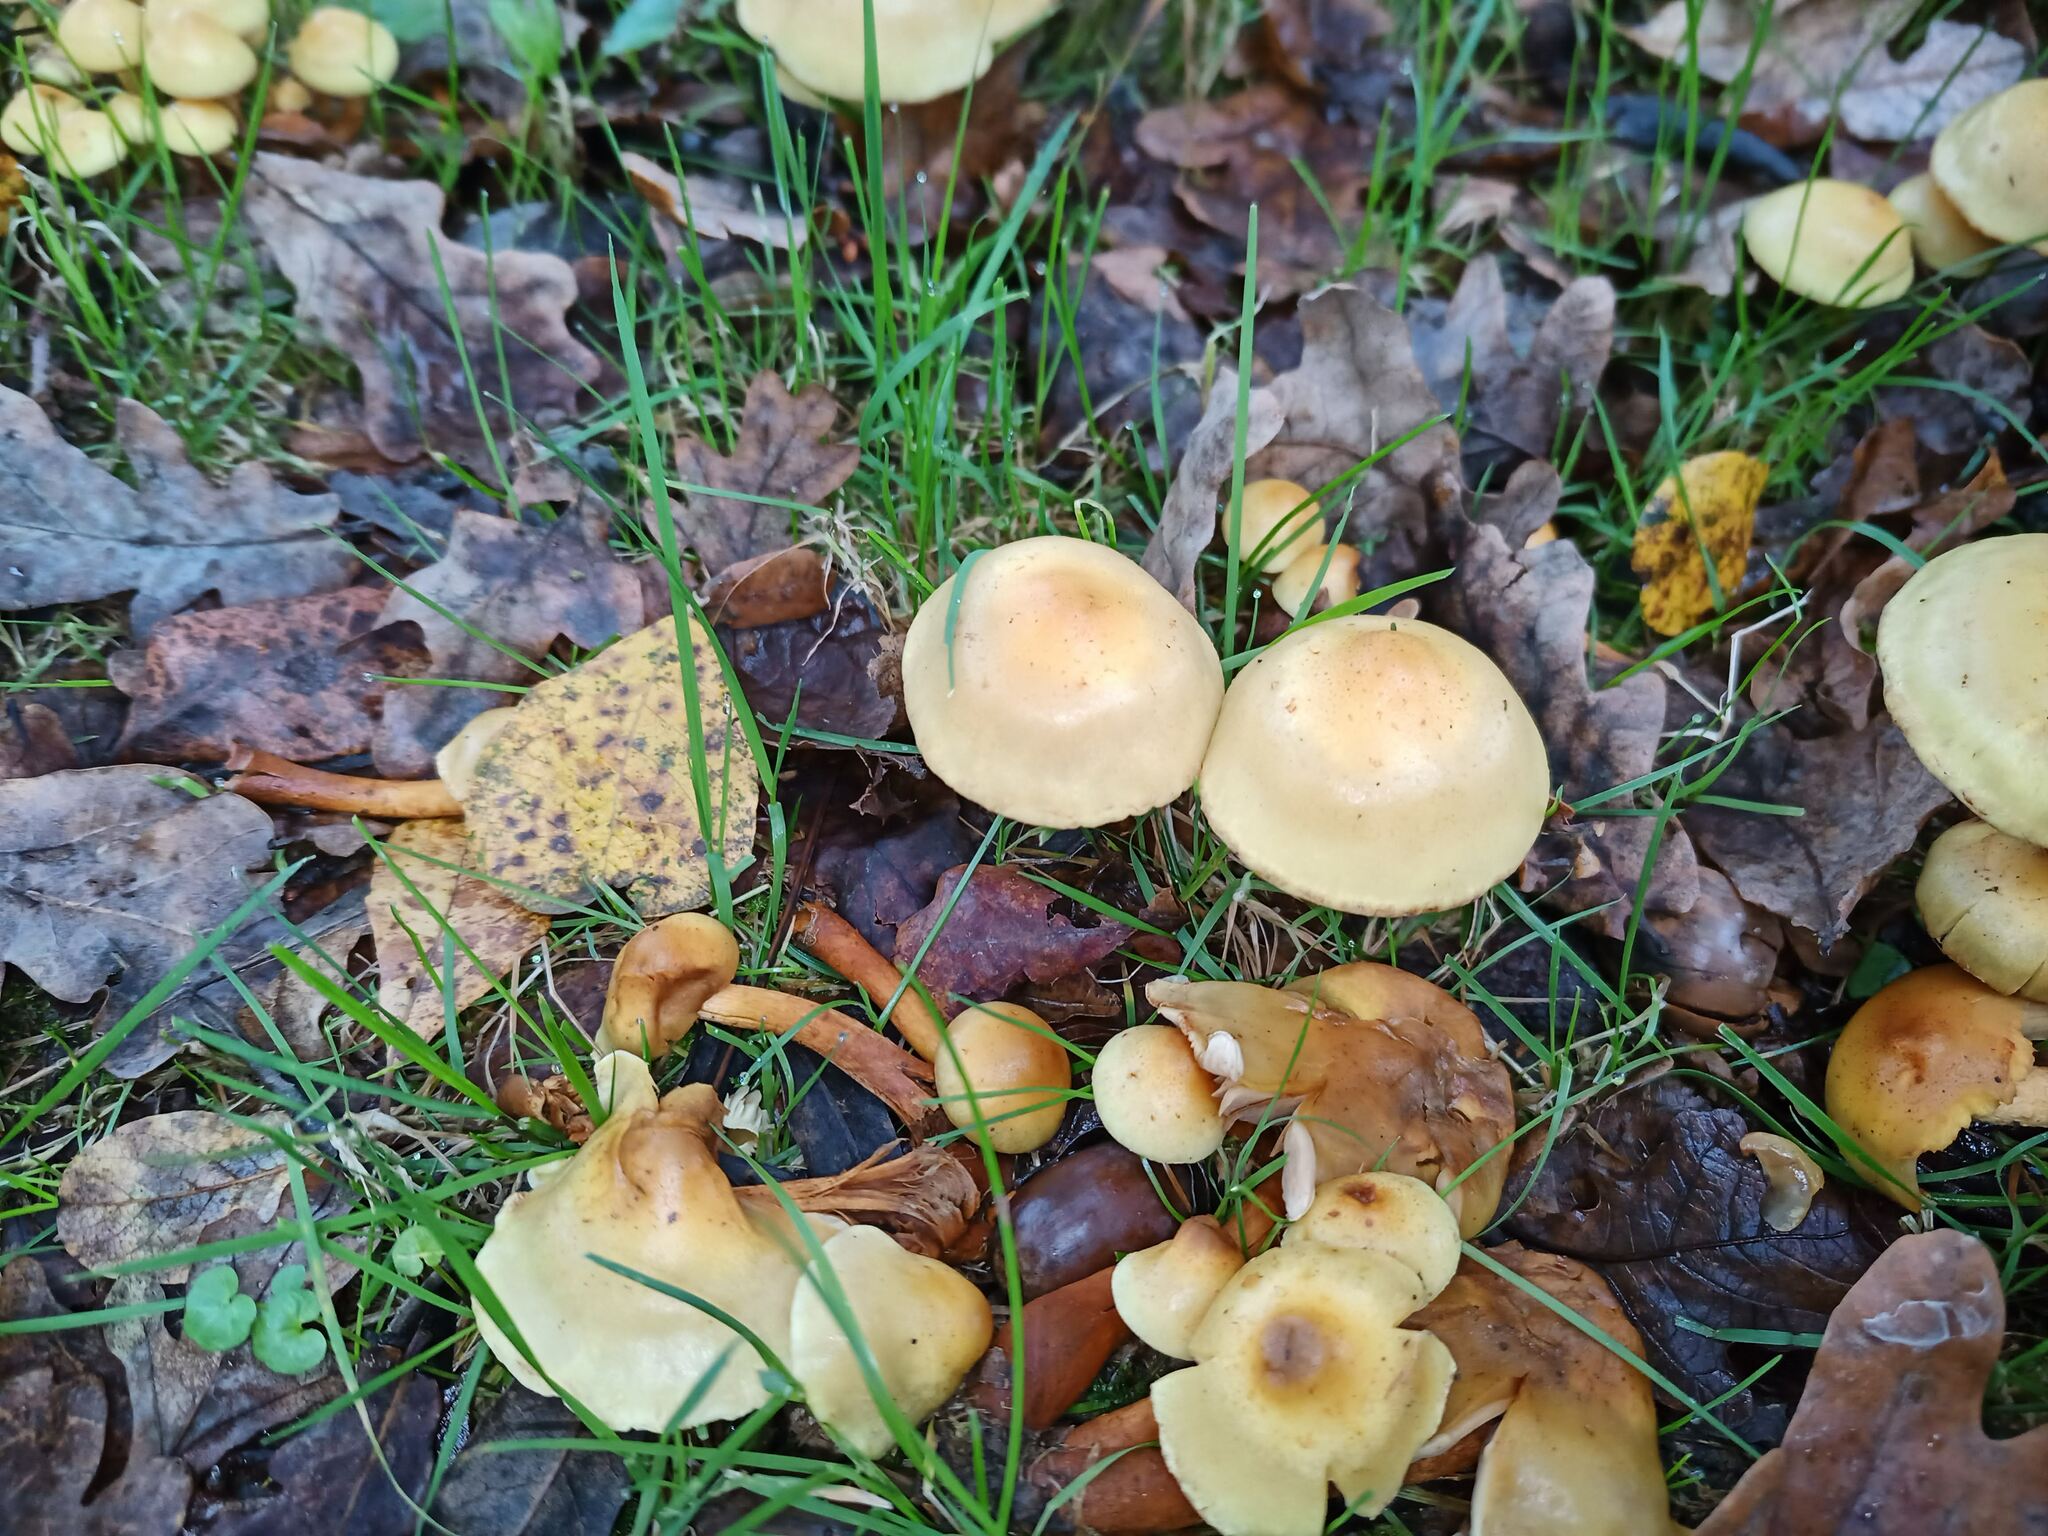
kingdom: Fungi
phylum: Basidiomycota
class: Agaricomycetes
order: Agaricales
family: Hymenogastraceae
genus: Flammula
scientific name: Flammula alnicola
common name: Alder scalycap
